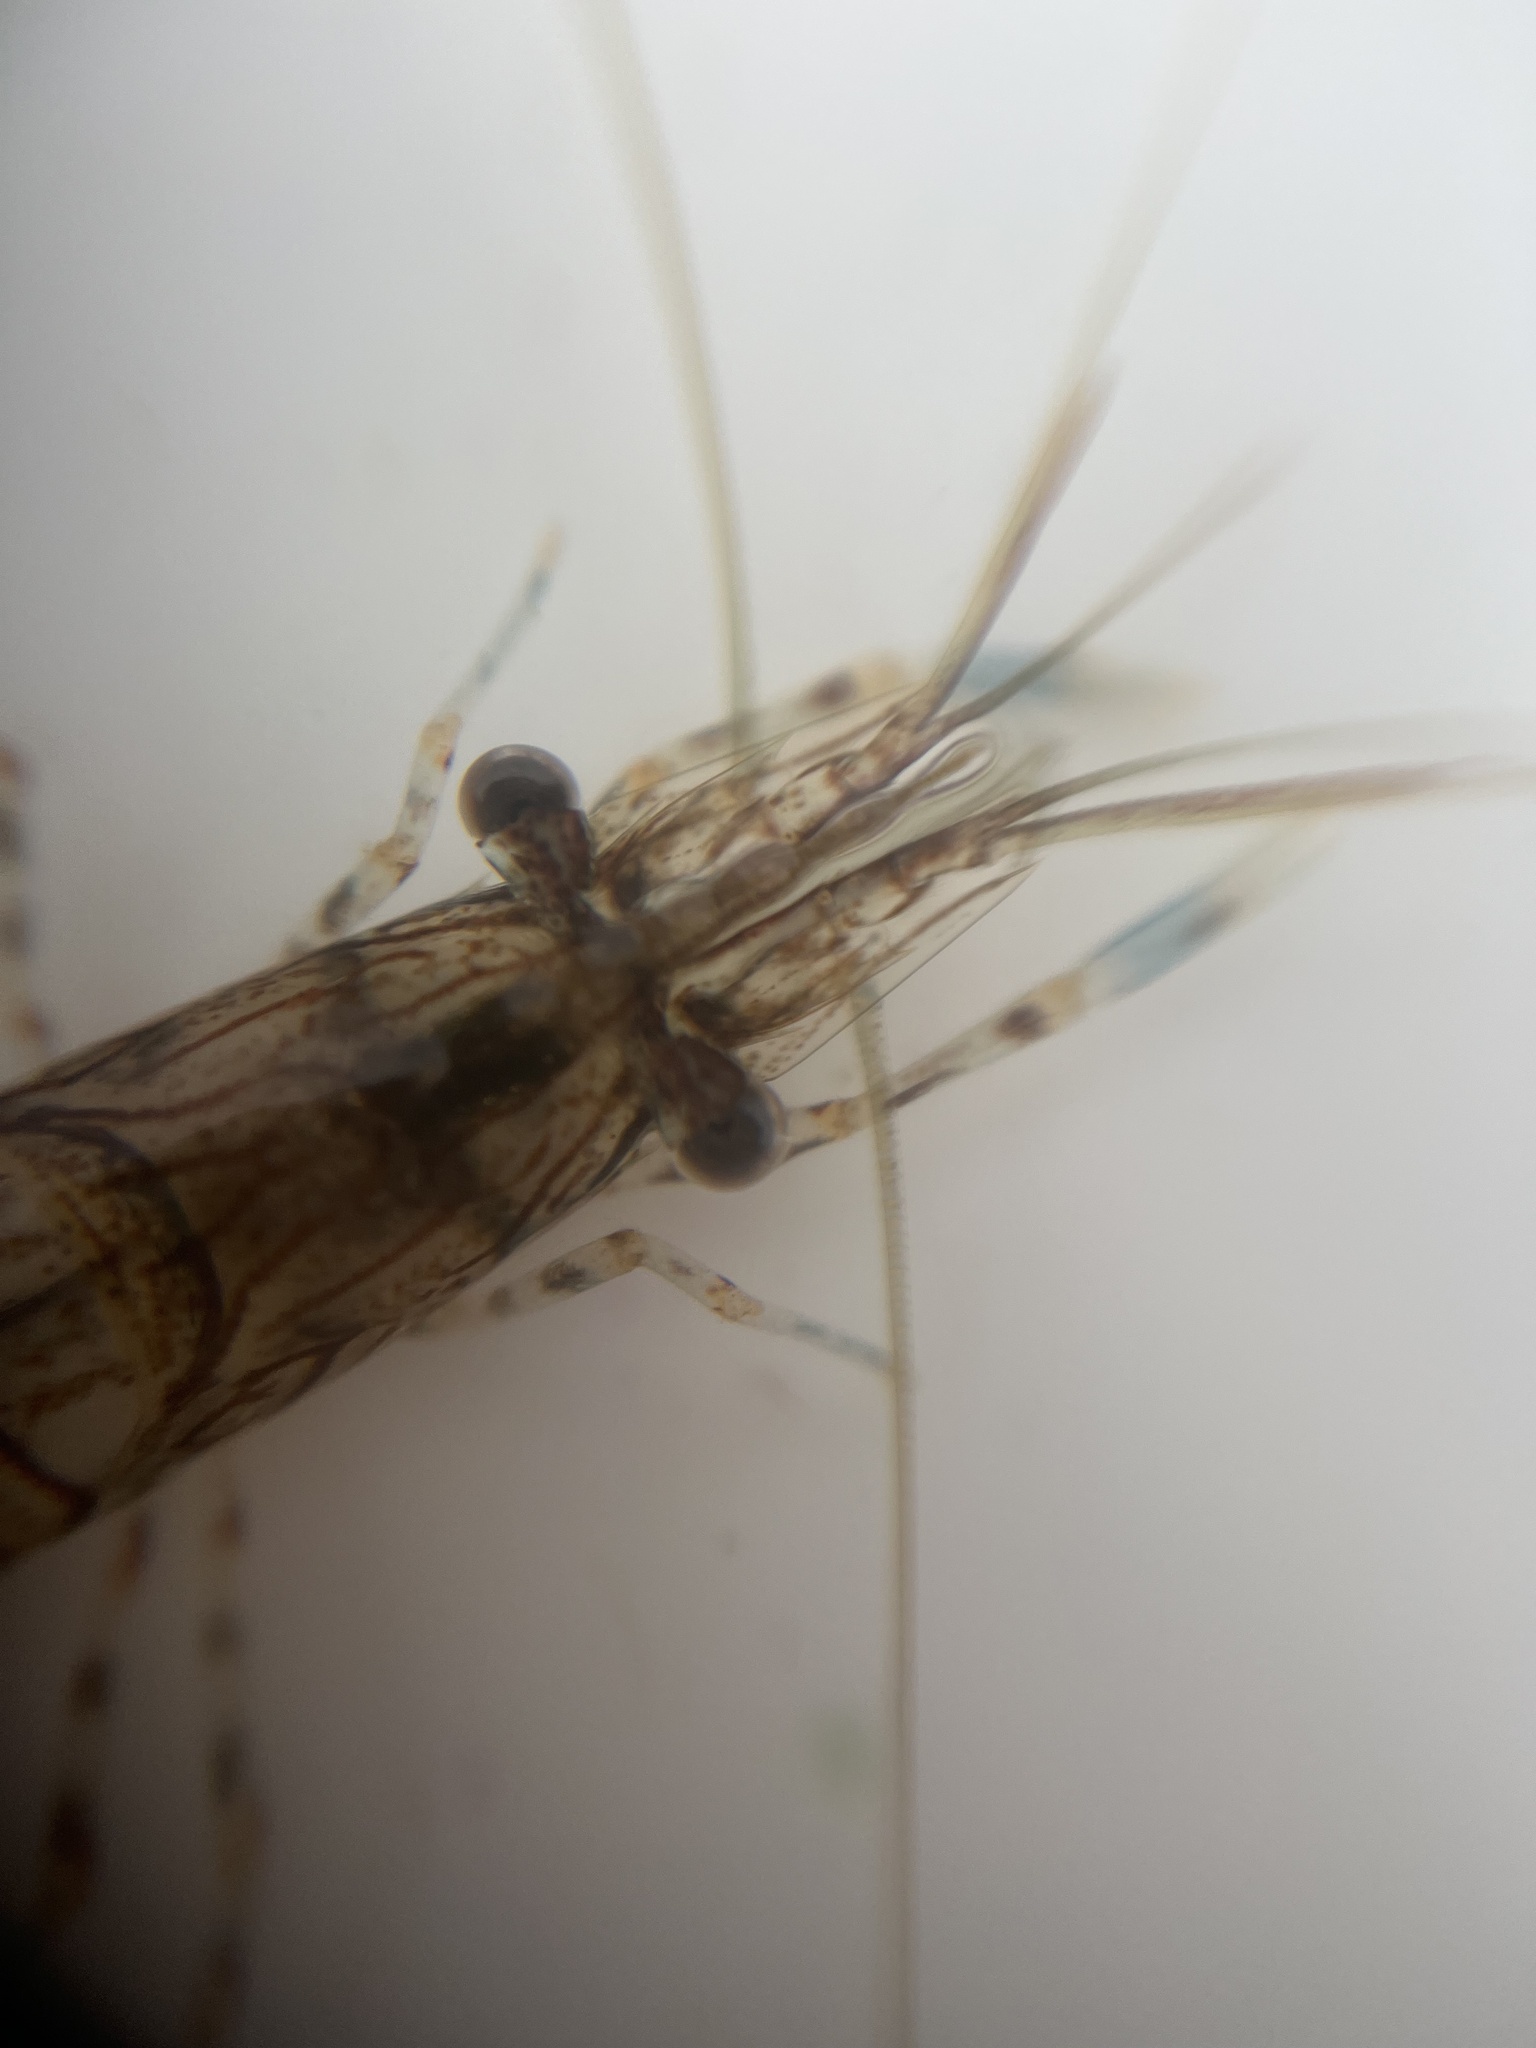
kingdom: Animalia
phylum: Arthropoda
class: Malacostraca
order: Decapoda
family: Palaemonidae
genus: Palaemon
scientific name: Palaemon elegans
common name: Grass prawm
